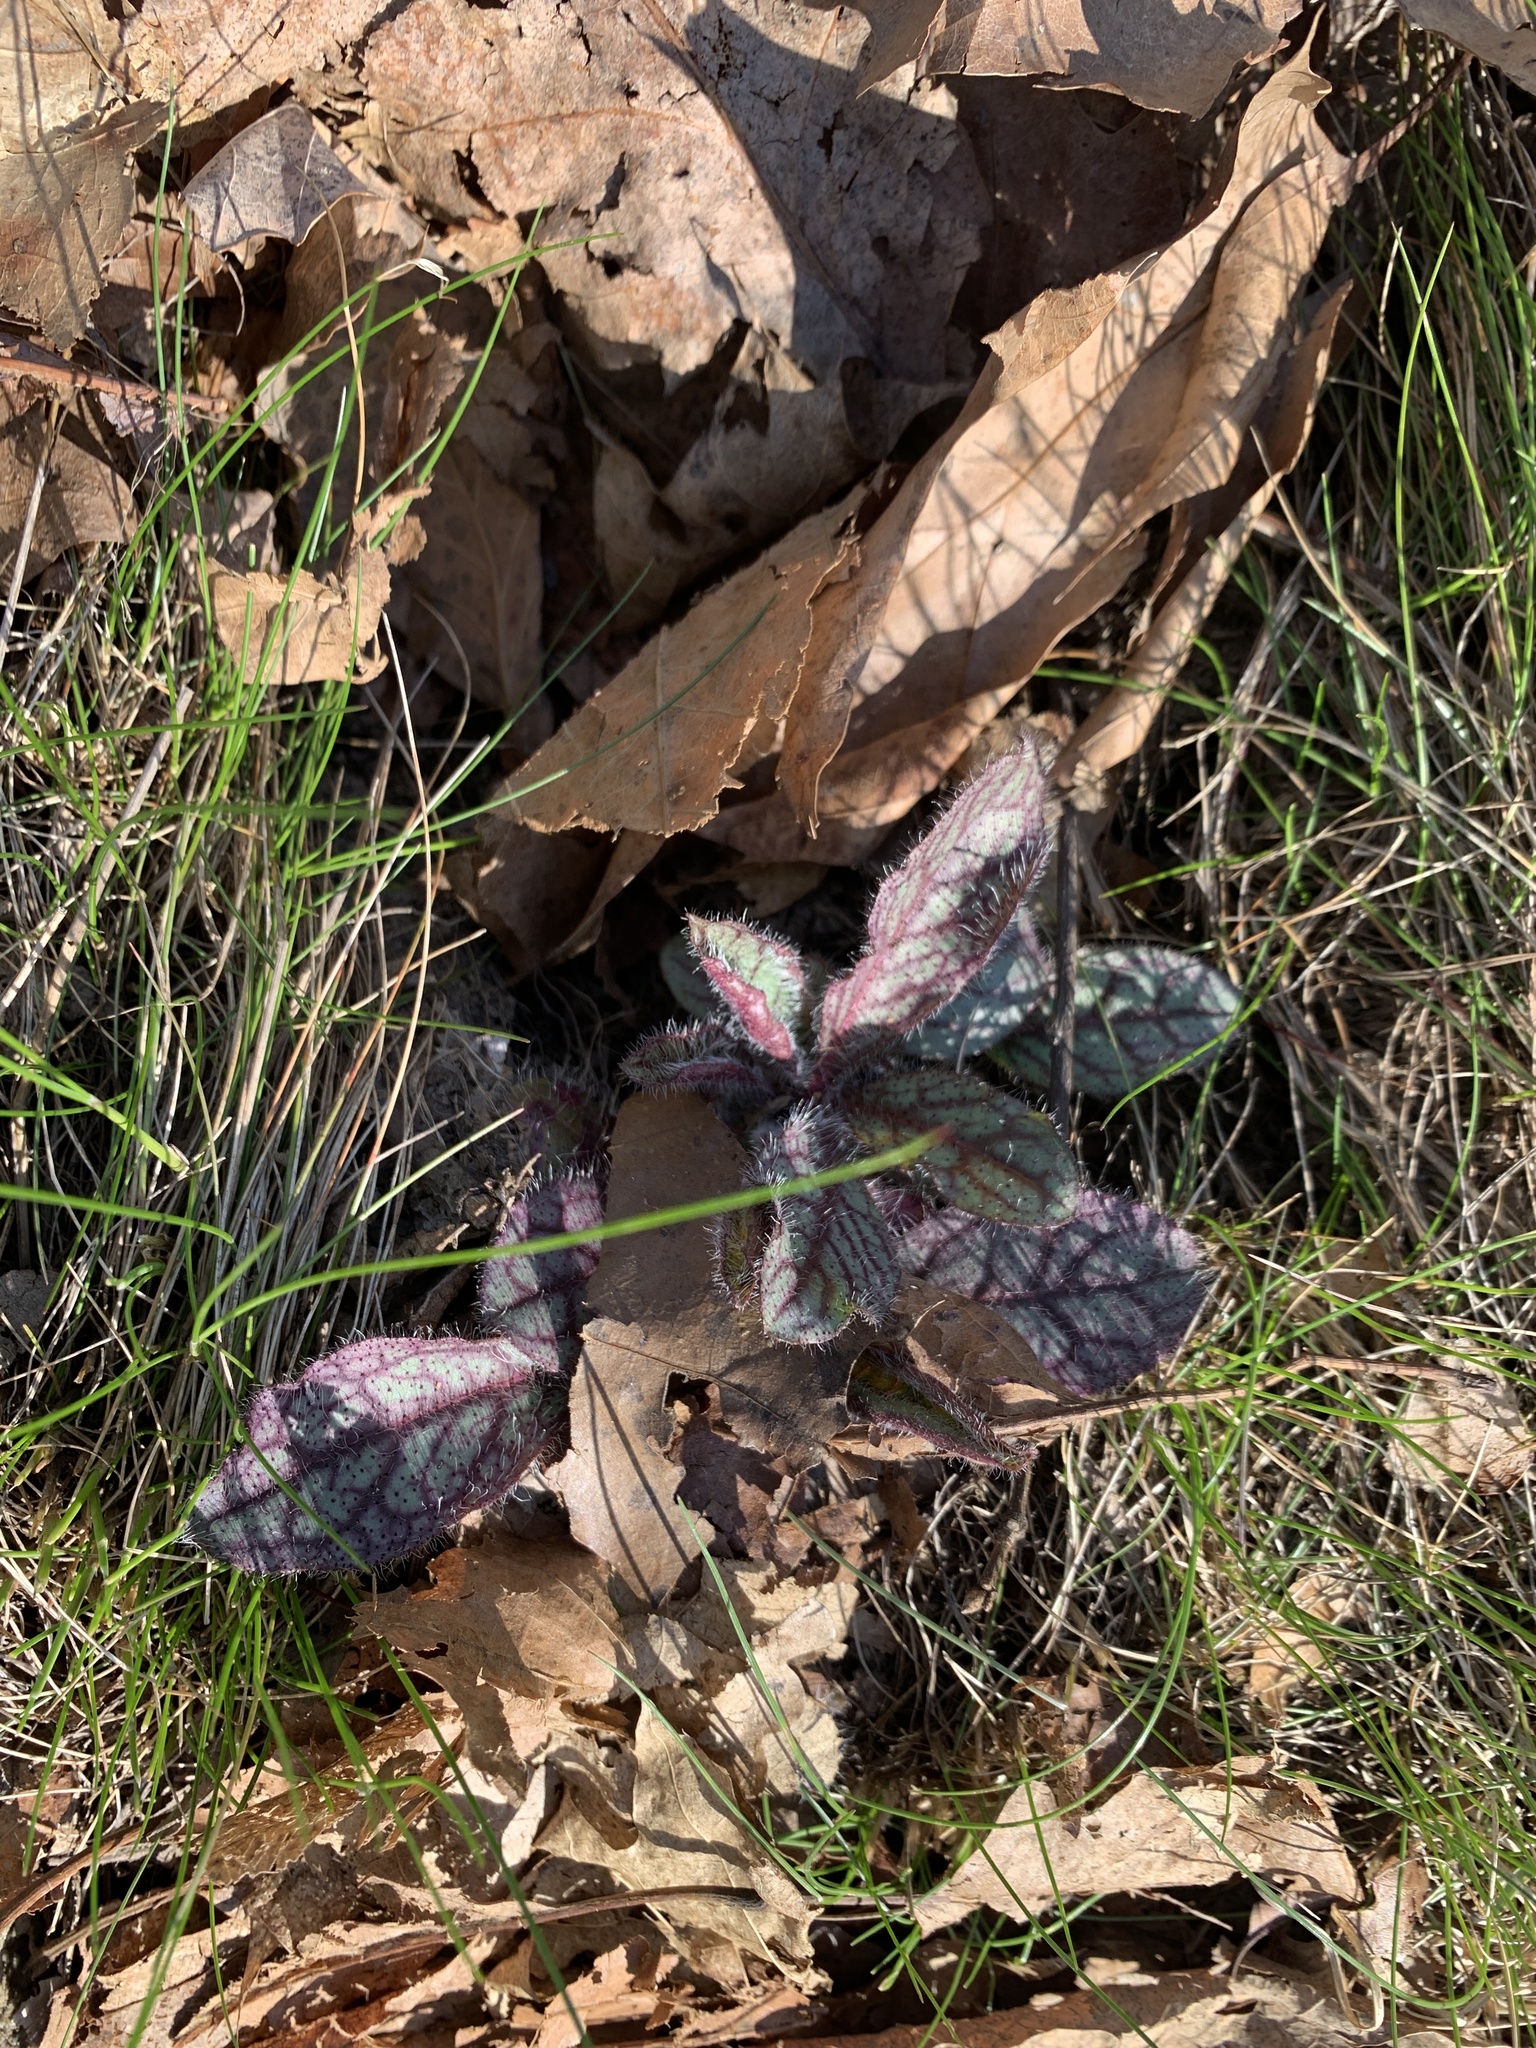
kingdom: Plantae
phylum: Tracheophyta
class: Magnoliopsida
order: Asterales
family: Asteraceae
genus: Hieracium
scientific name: Hieracium venosum
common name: Rattlesnake hawkweed
